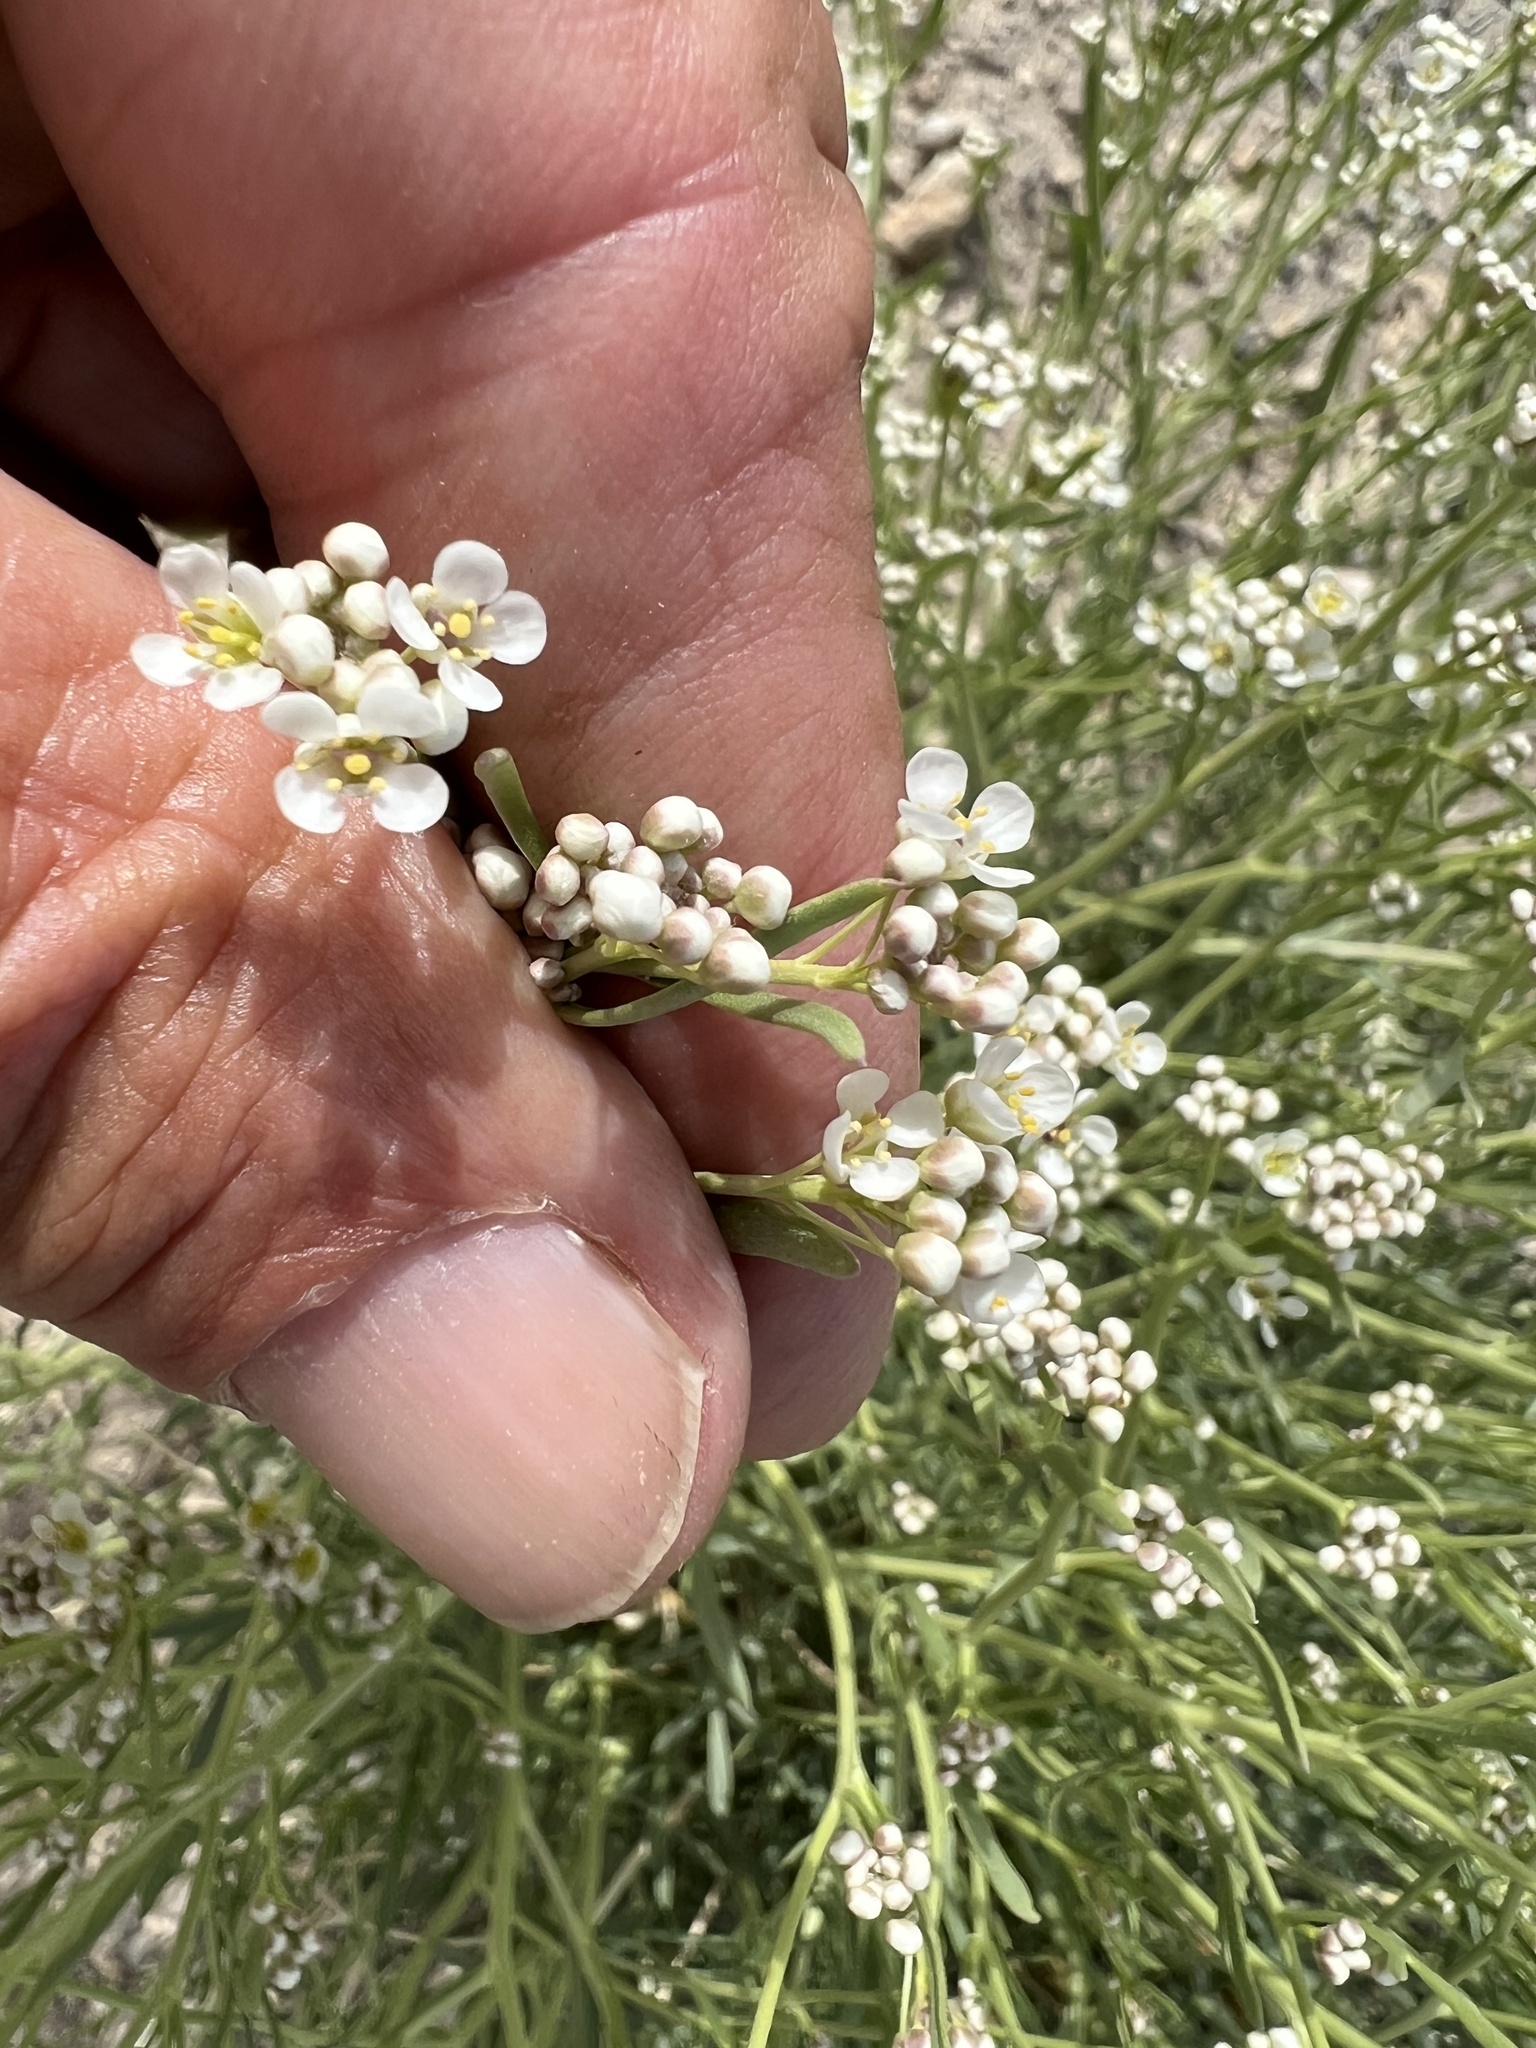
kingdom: Plantae
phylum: Tracheophyta
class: Magnoliopsida
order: Brassicales
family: Brassicaceae
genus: Lepidium
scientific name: Lepidium fremontii
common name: Fremont's pepperwort
